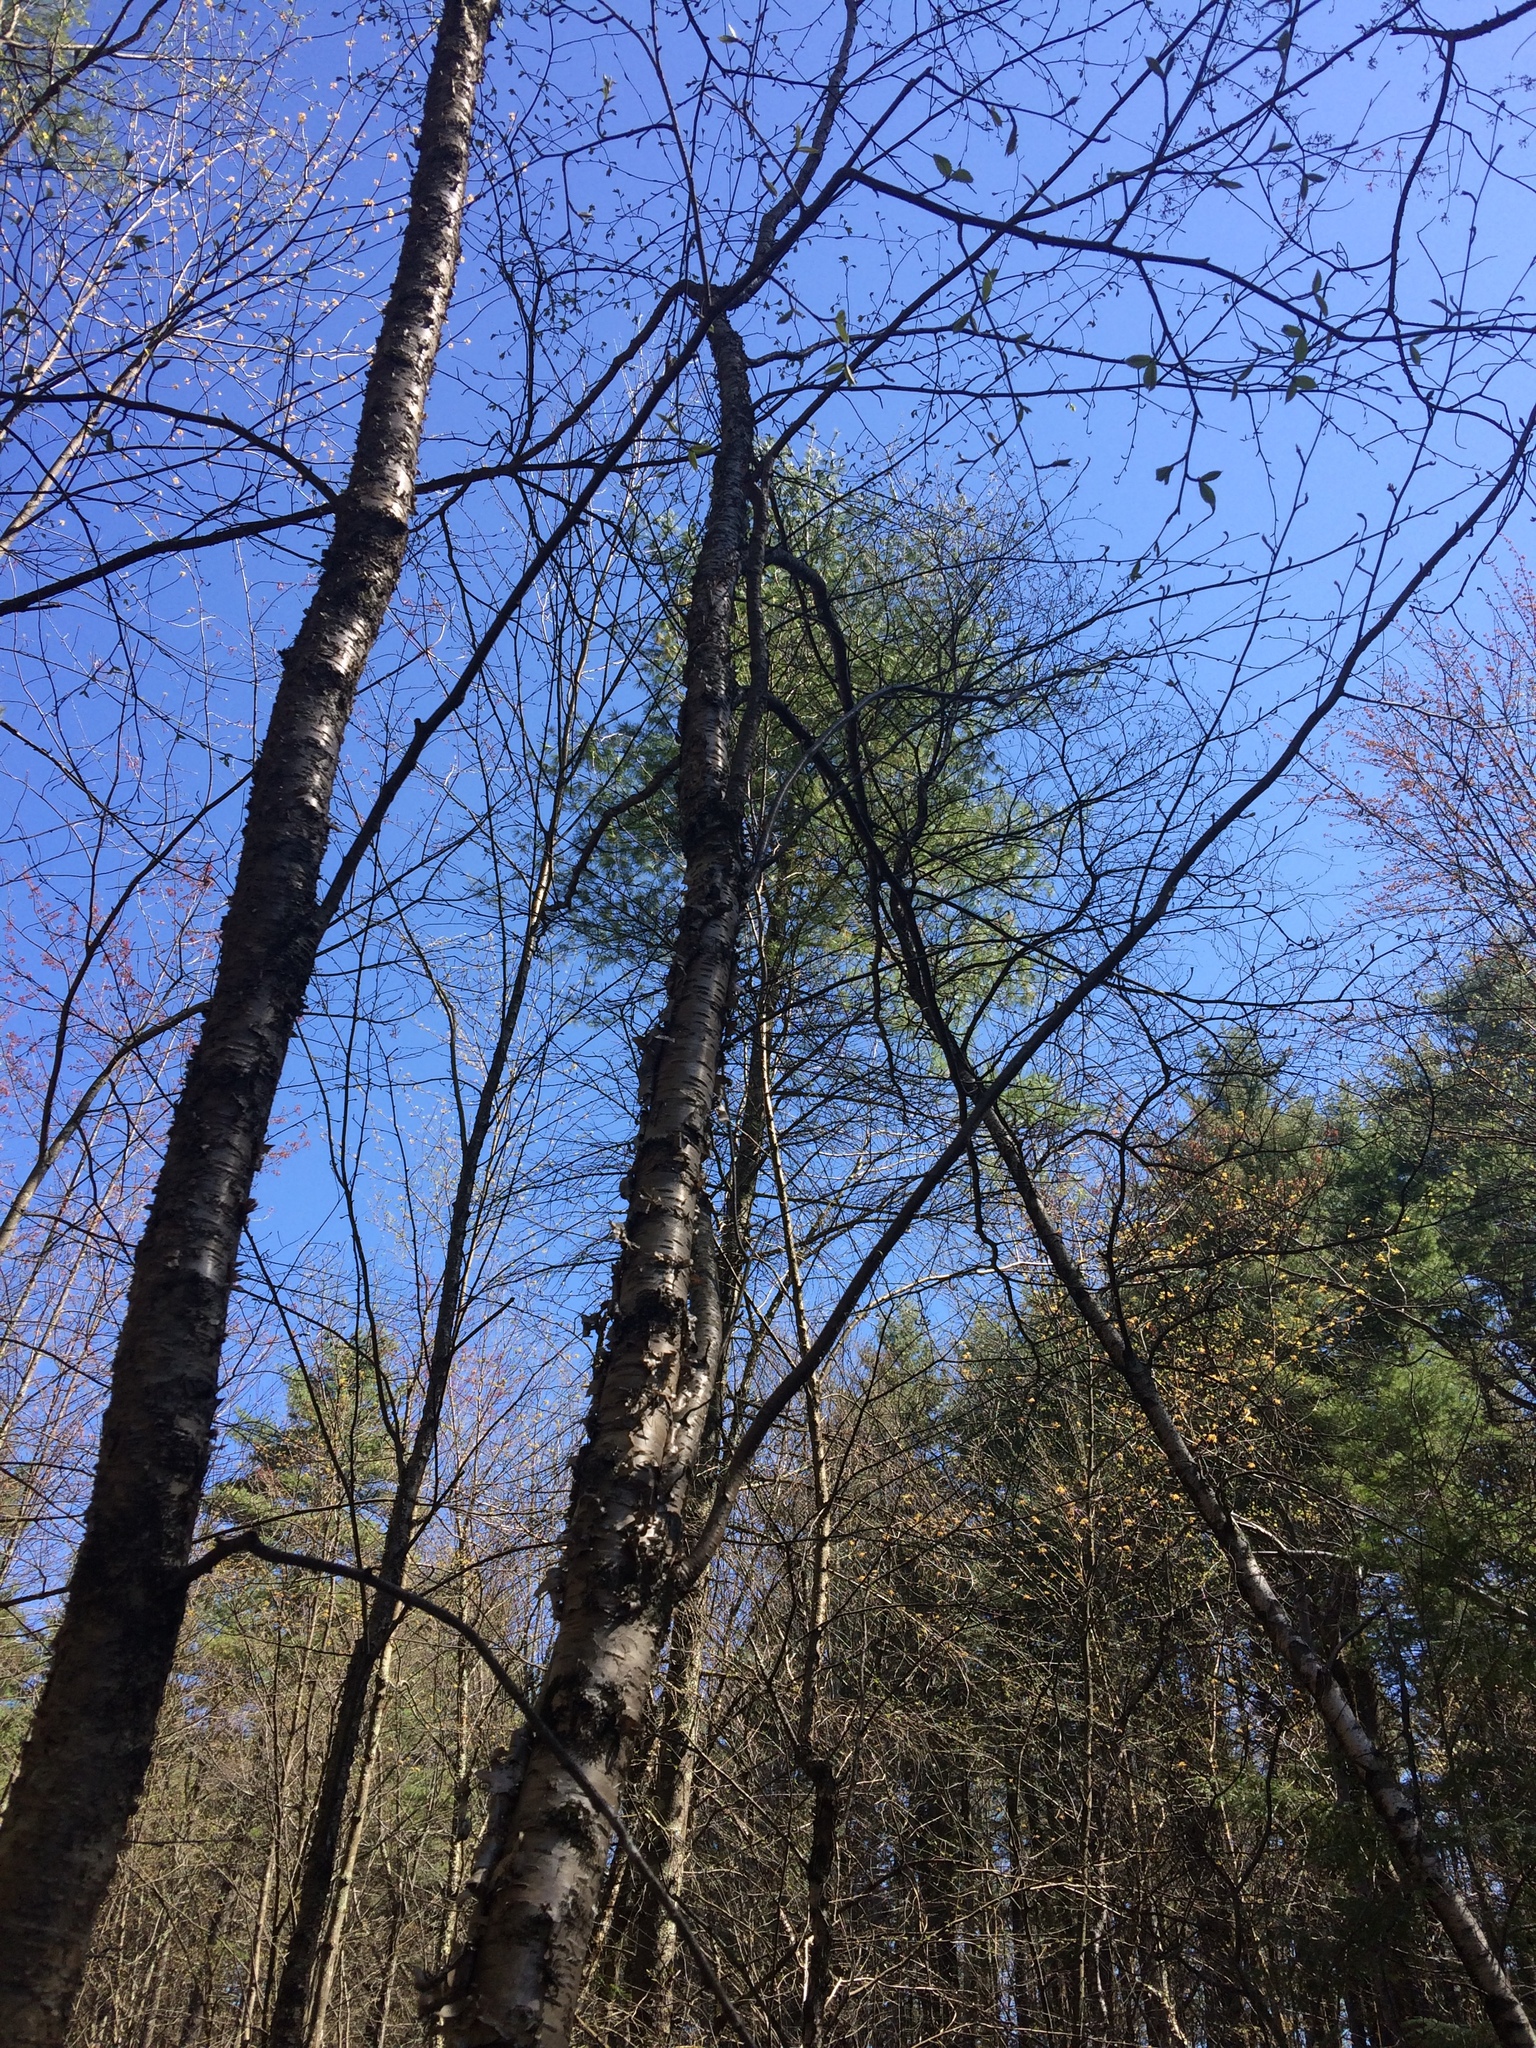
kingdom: Plantae
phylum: Tracheophyta
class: Pinopsida
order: Pinales
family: Pinaceae
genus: Pinus
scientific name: Pinus strobus
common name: Weymouth pine
